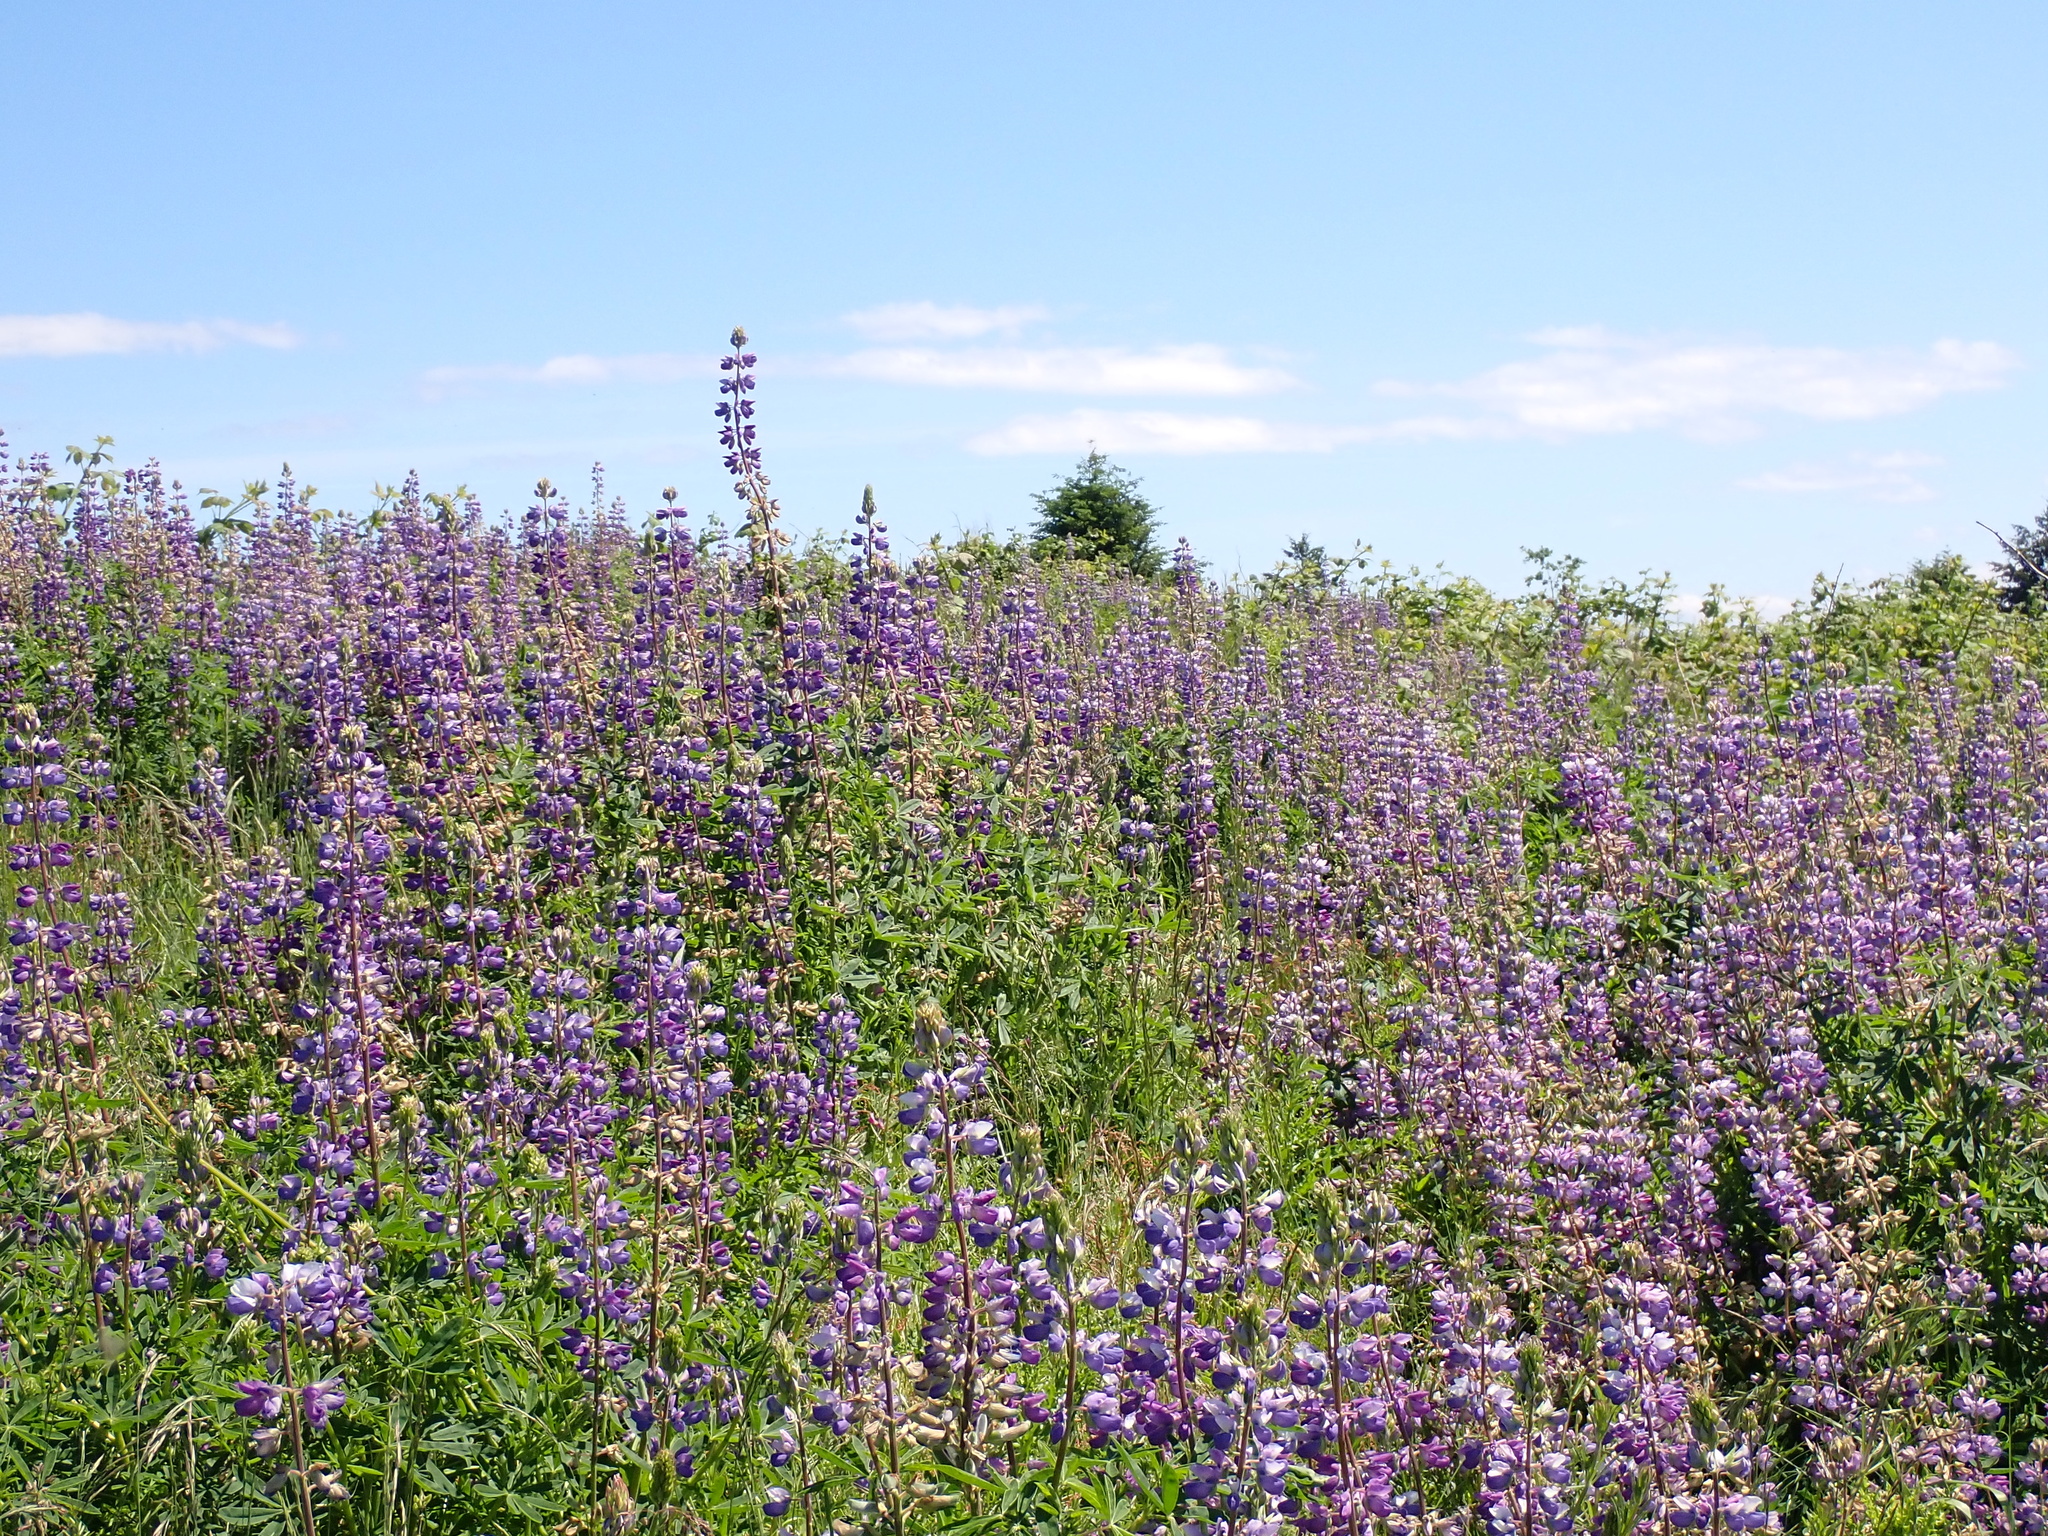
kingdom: Plantae
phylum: Tracheophyta
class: Magnoliopsida
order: Fabales
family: Fabaceae
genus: Lupinus
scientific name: Lupinus rivularis
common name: Riverbank lupine
